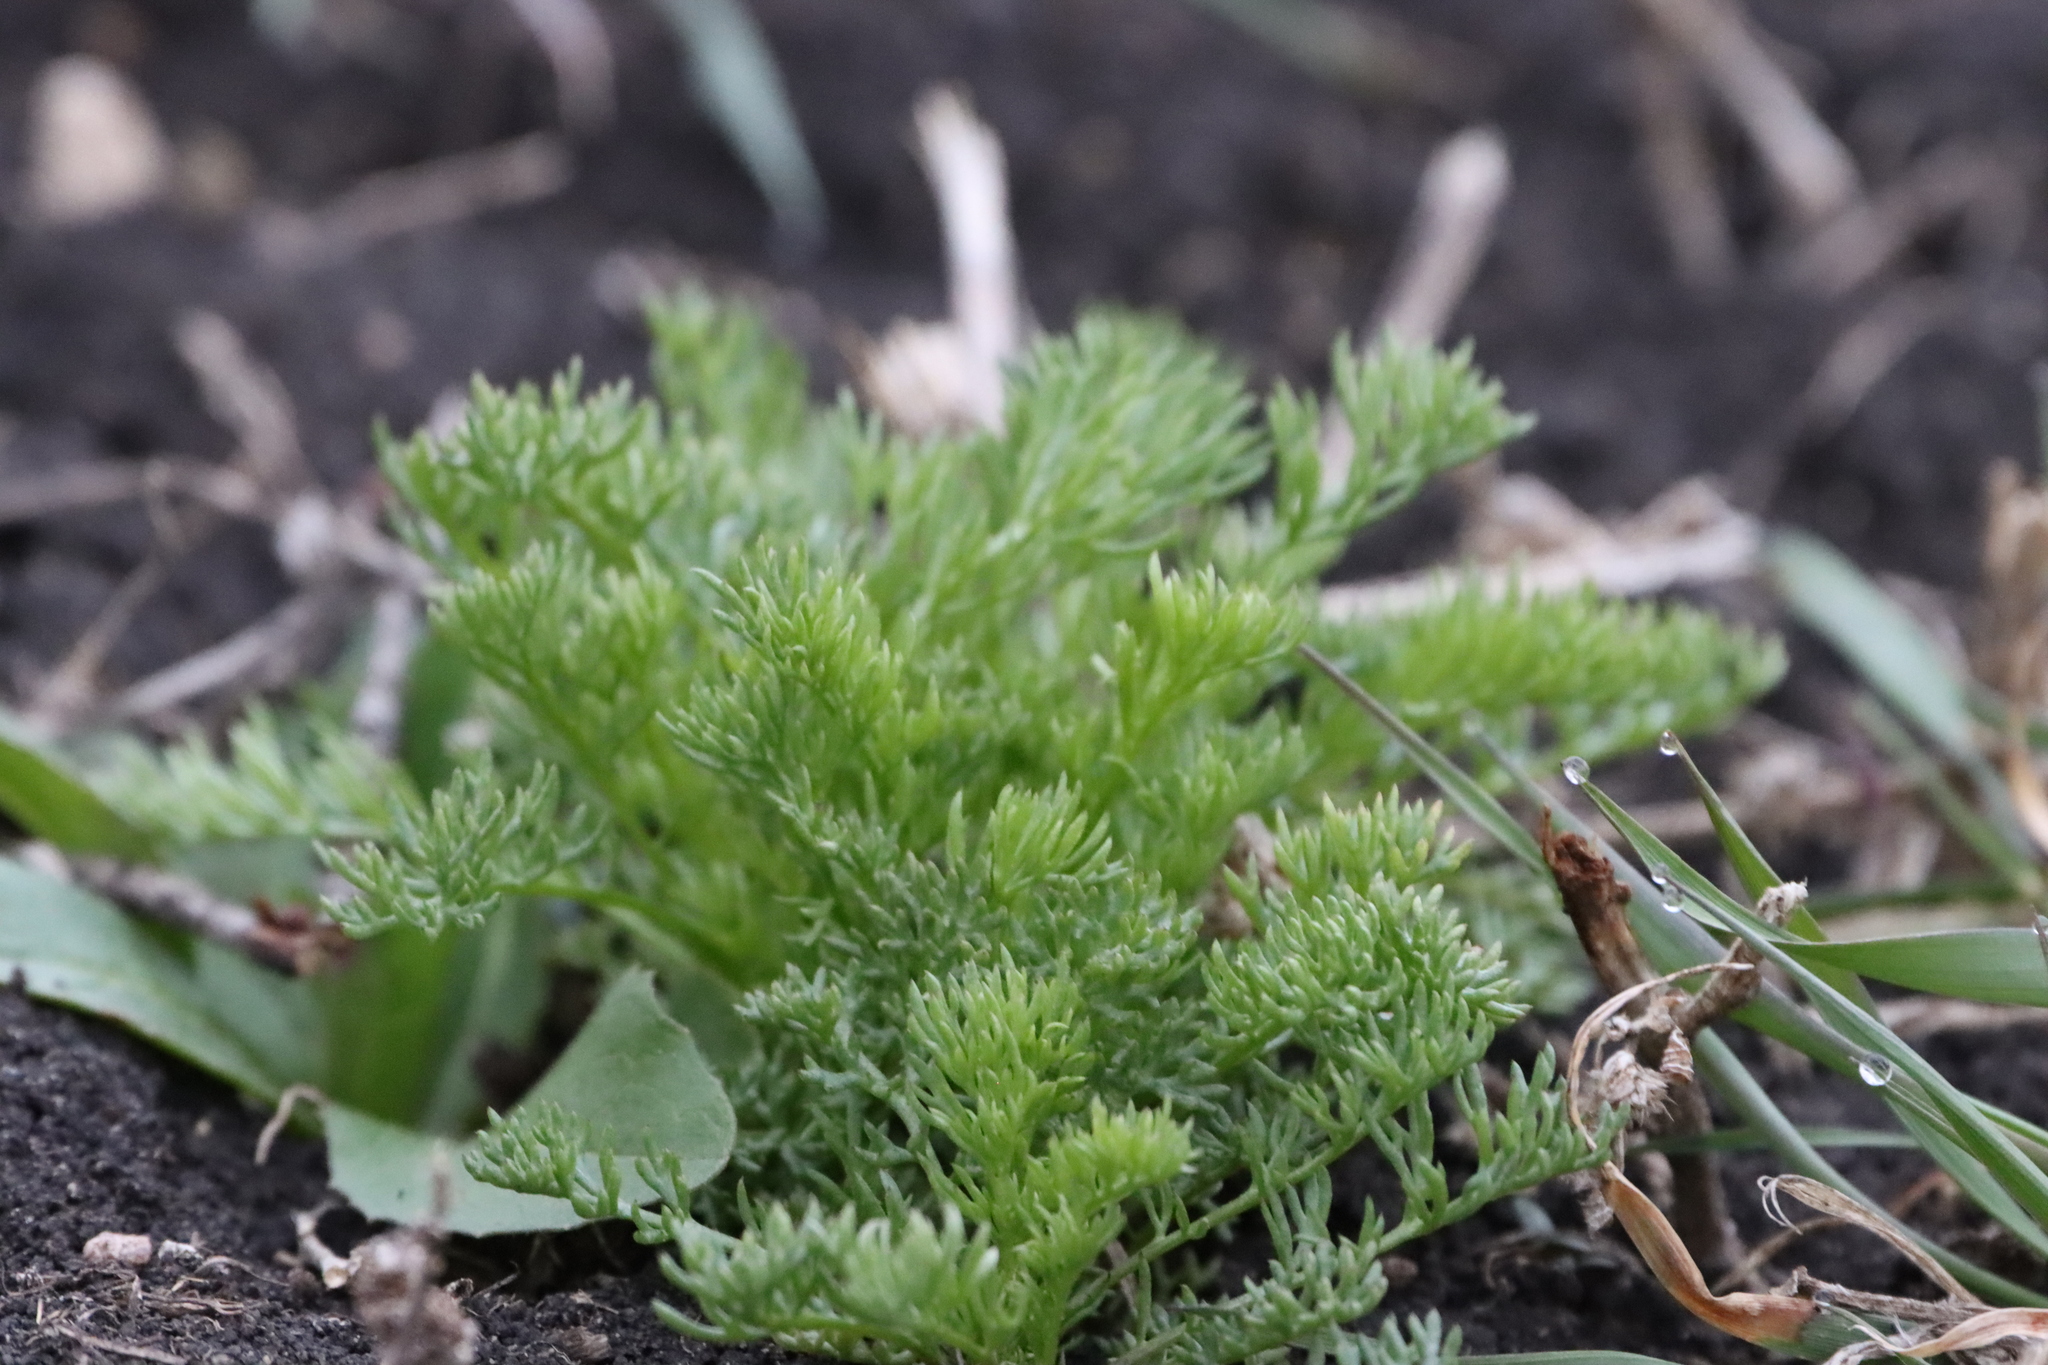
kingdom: Plantae
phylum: Tracheophyta
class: Magnoliopsida
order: Asterales
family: Asteraceae
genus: Matricaria
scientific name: Matricaria discoidea
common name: Disc mayweed
